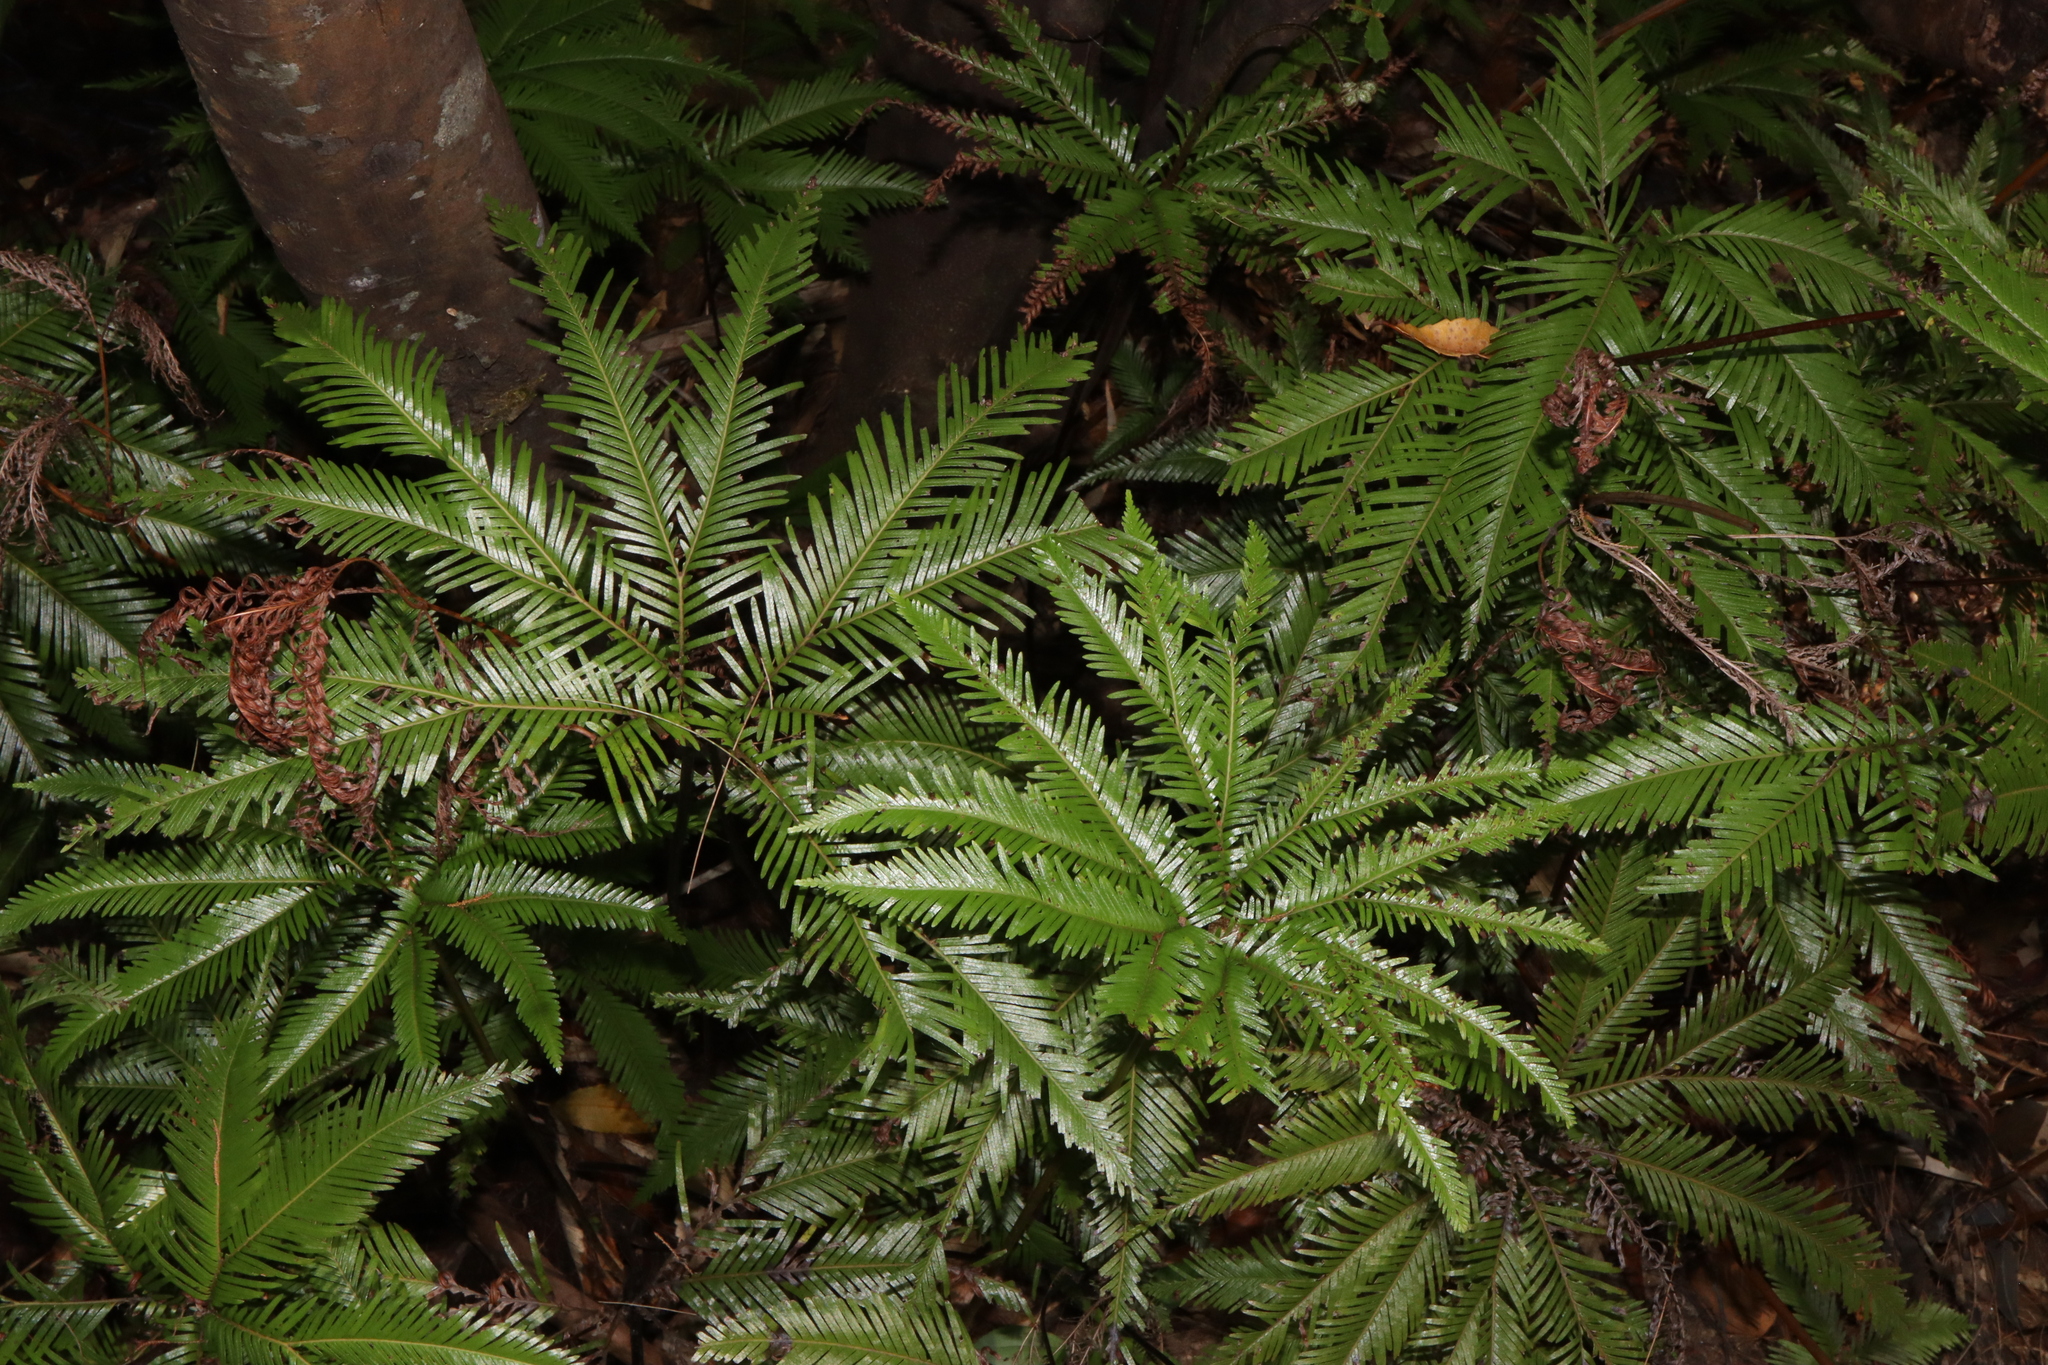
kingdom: Plantae
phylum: Tracheophyta
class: Polypodiopsida
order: Gleicheniales
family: Gleicheniaceae
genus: Sticherus
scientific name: Sticherus flabellatus
